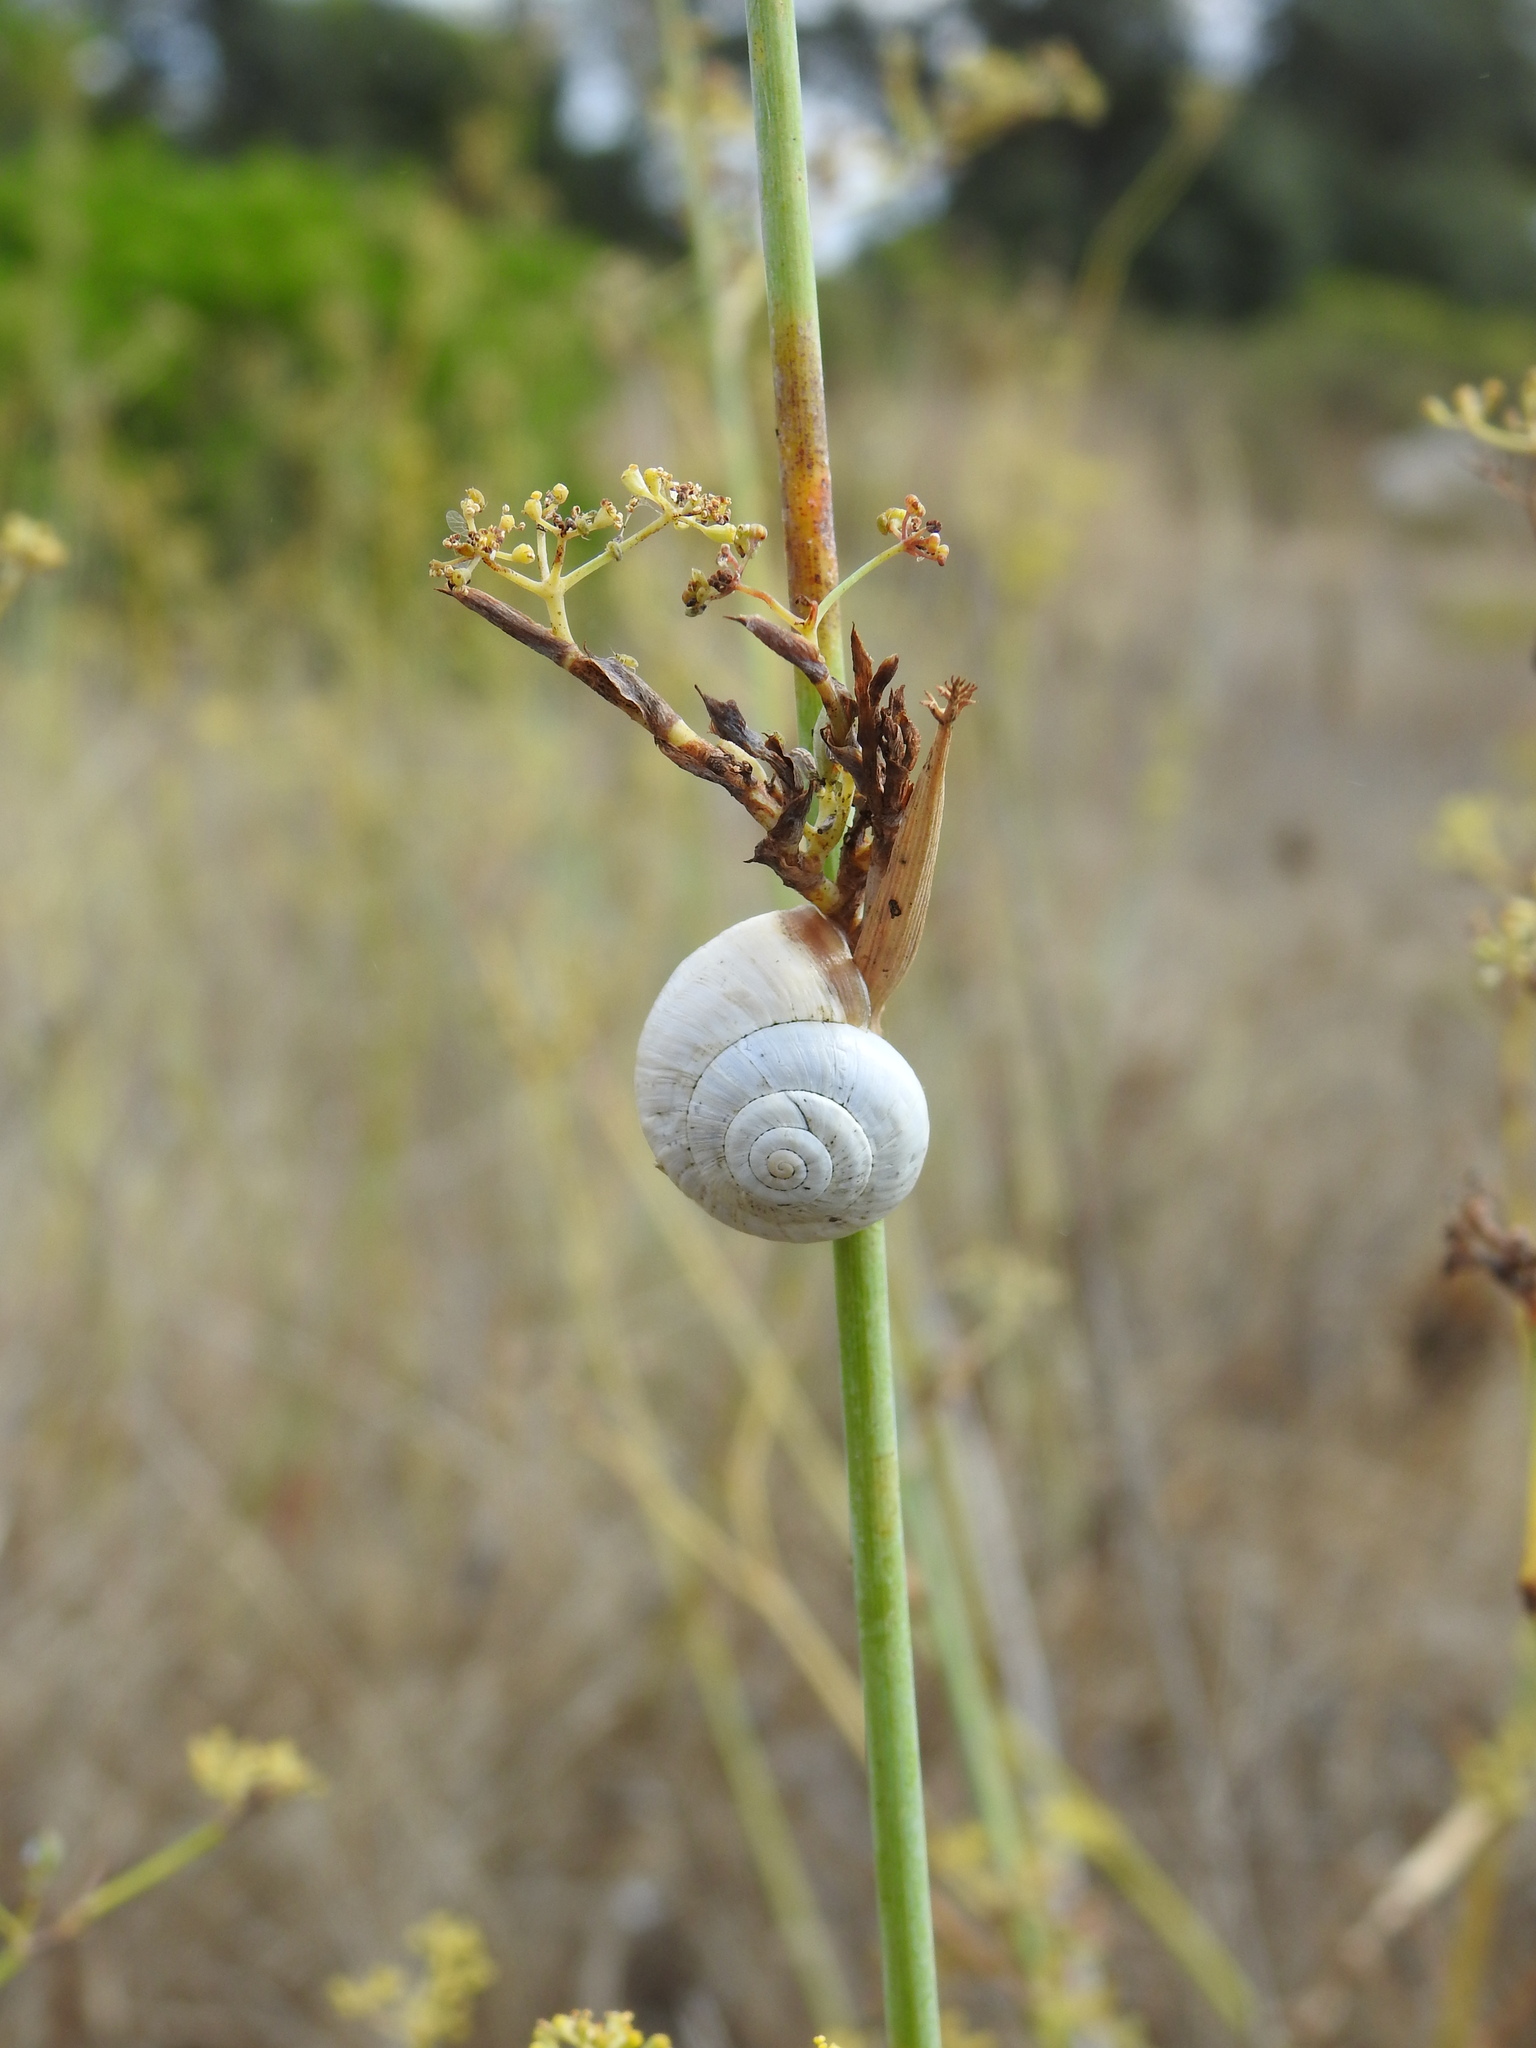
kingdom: Animalia
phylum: Mollusca
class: Gastropoda
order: Stylommatophora
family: Helicidae
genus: Theba
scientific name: Theba pisana
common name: White snail
